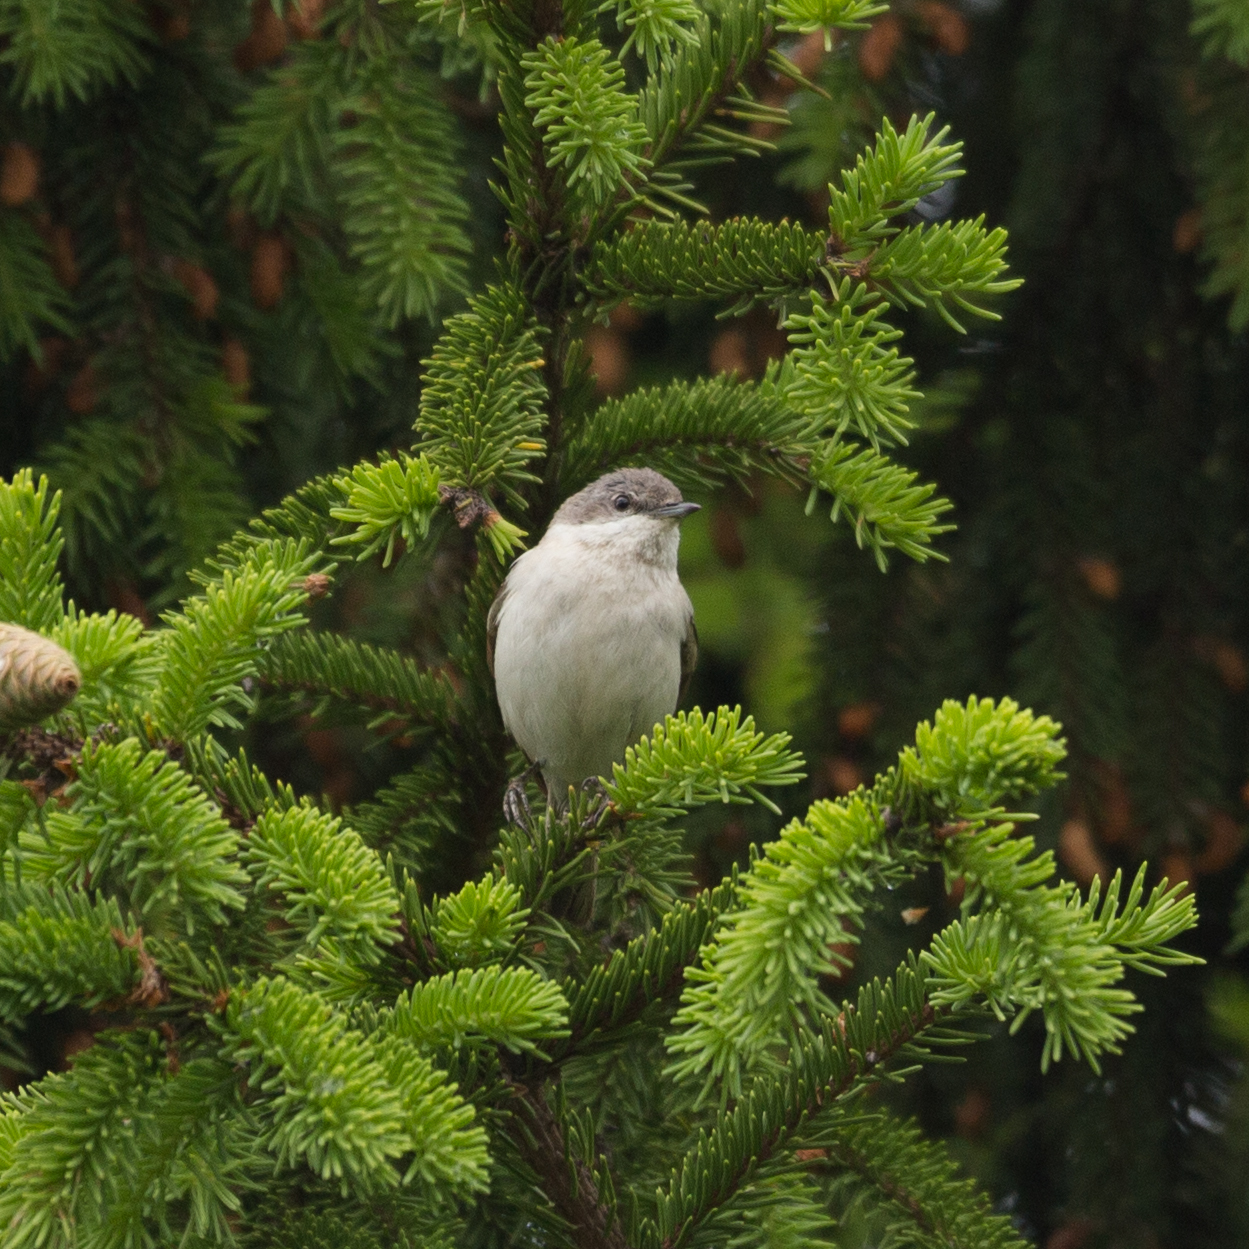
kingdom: Animalia
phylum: Chordata
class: Aves
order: Passeriformes
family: Sylviidae
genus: Sylvia
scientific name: Sylvia curruca
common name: Lesser whitethroat
